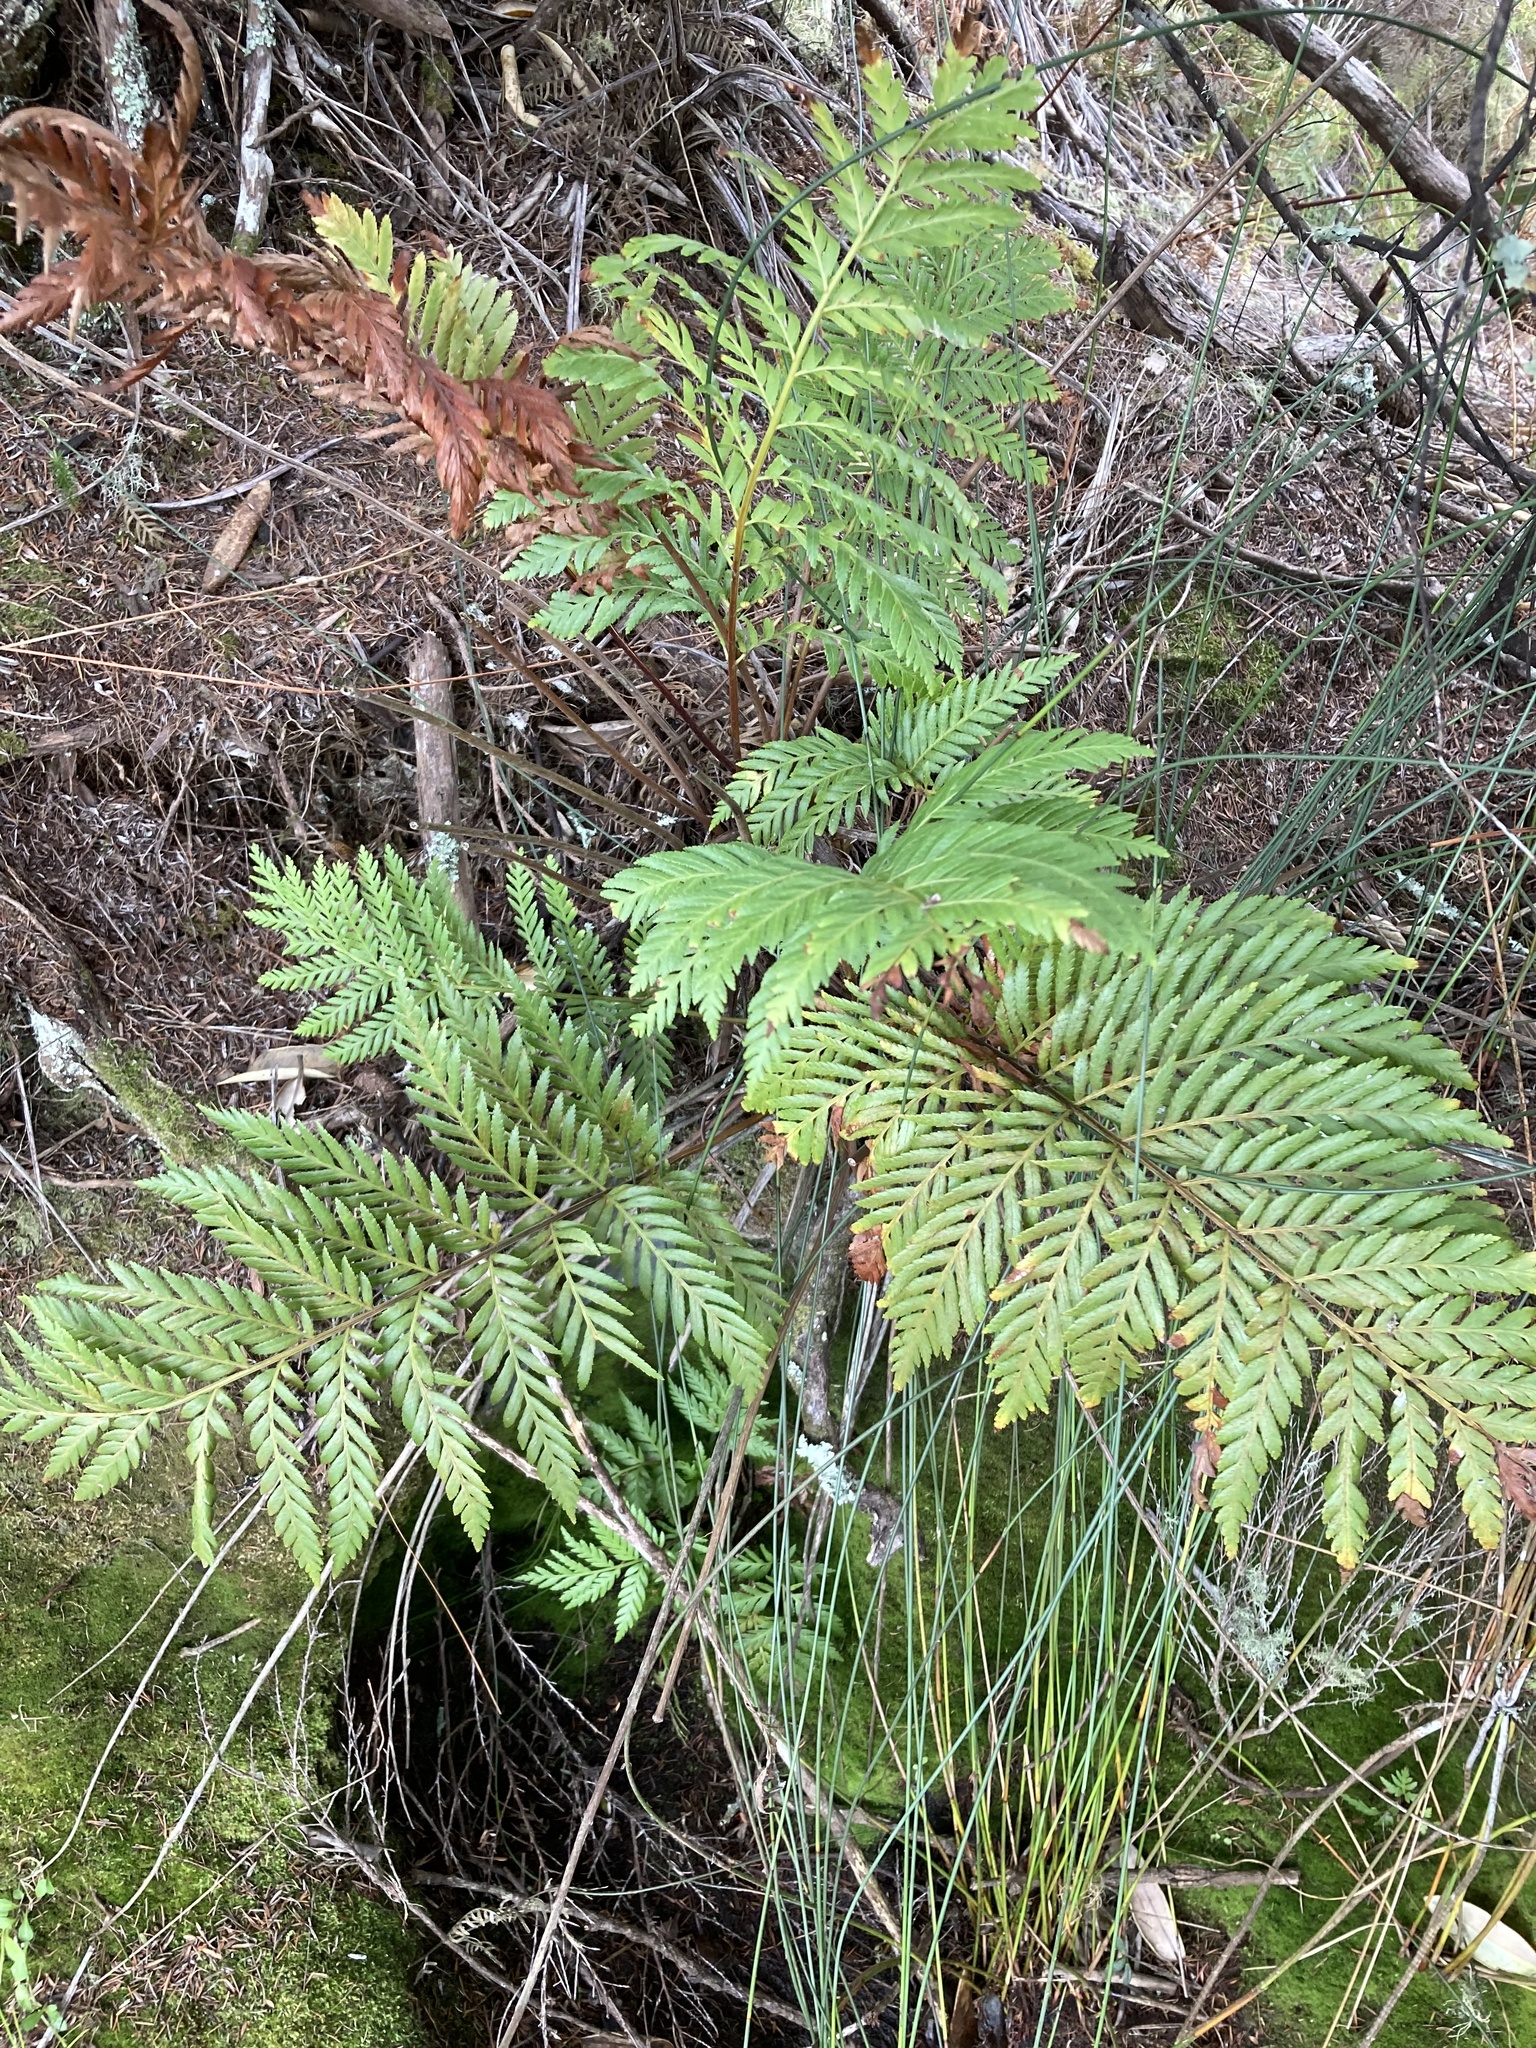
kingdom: Plantae
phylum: Tracheophyta
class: Polypodiopsida
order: Osmundales
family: Osmundaceae
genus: Todea
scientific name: Todea barbara
